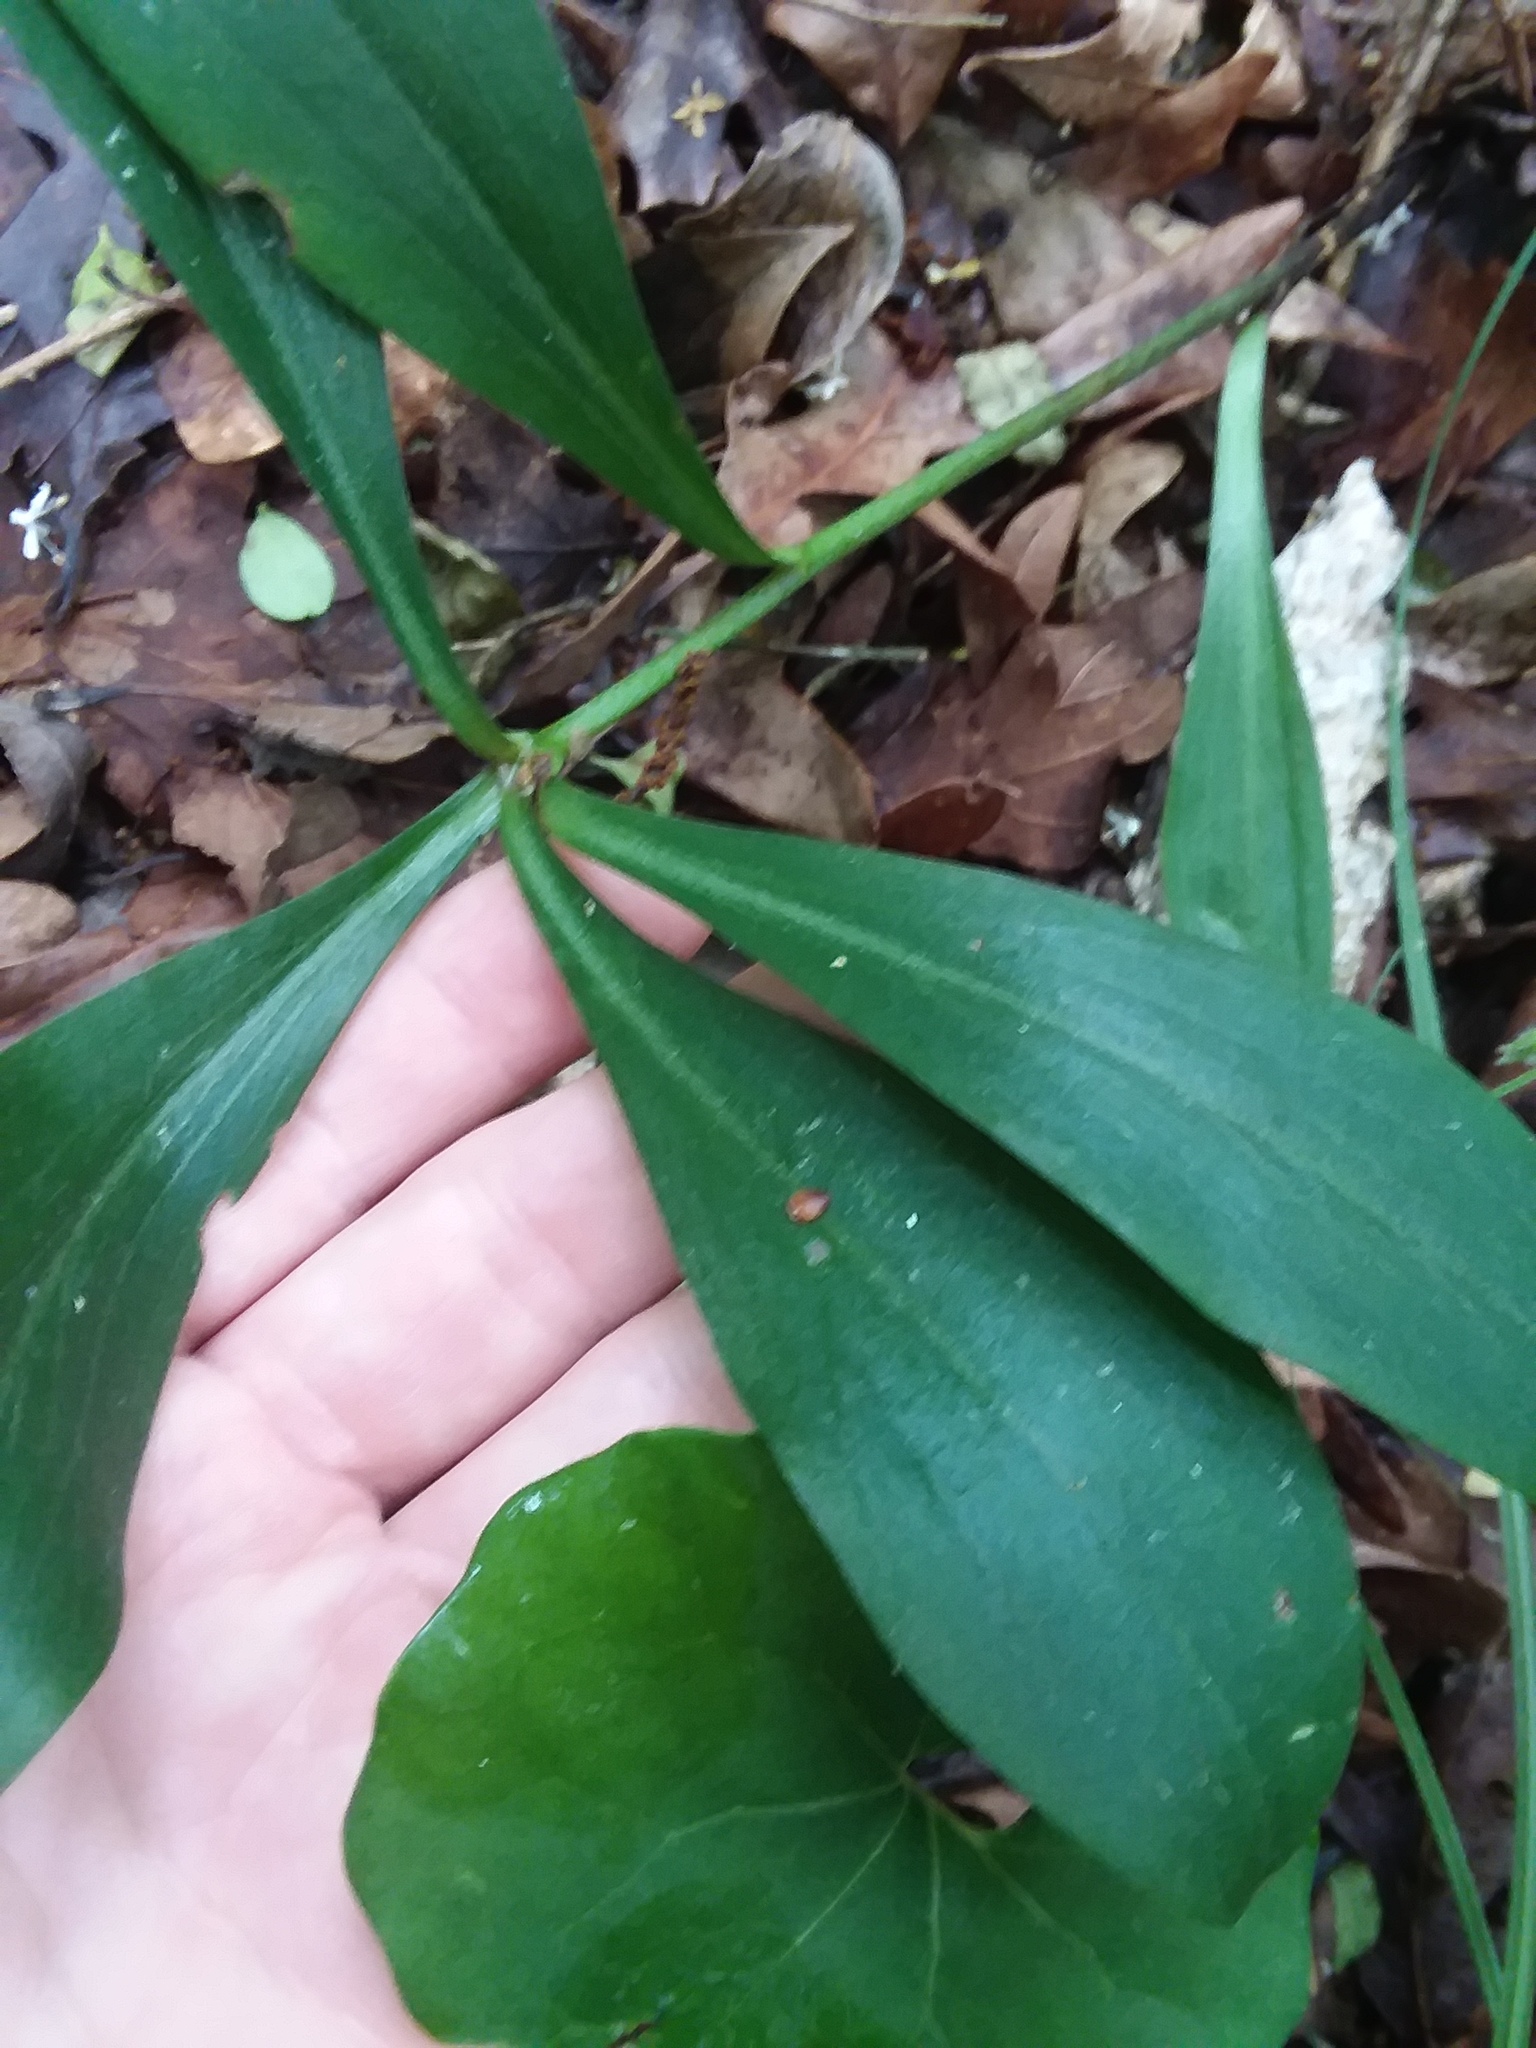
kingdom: Plantae
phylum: Tracheophyta
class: Liliopsida
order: Liliales
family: Liliaceae
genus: Lilium
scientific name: Lilium michauxii
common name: Carolina lily
